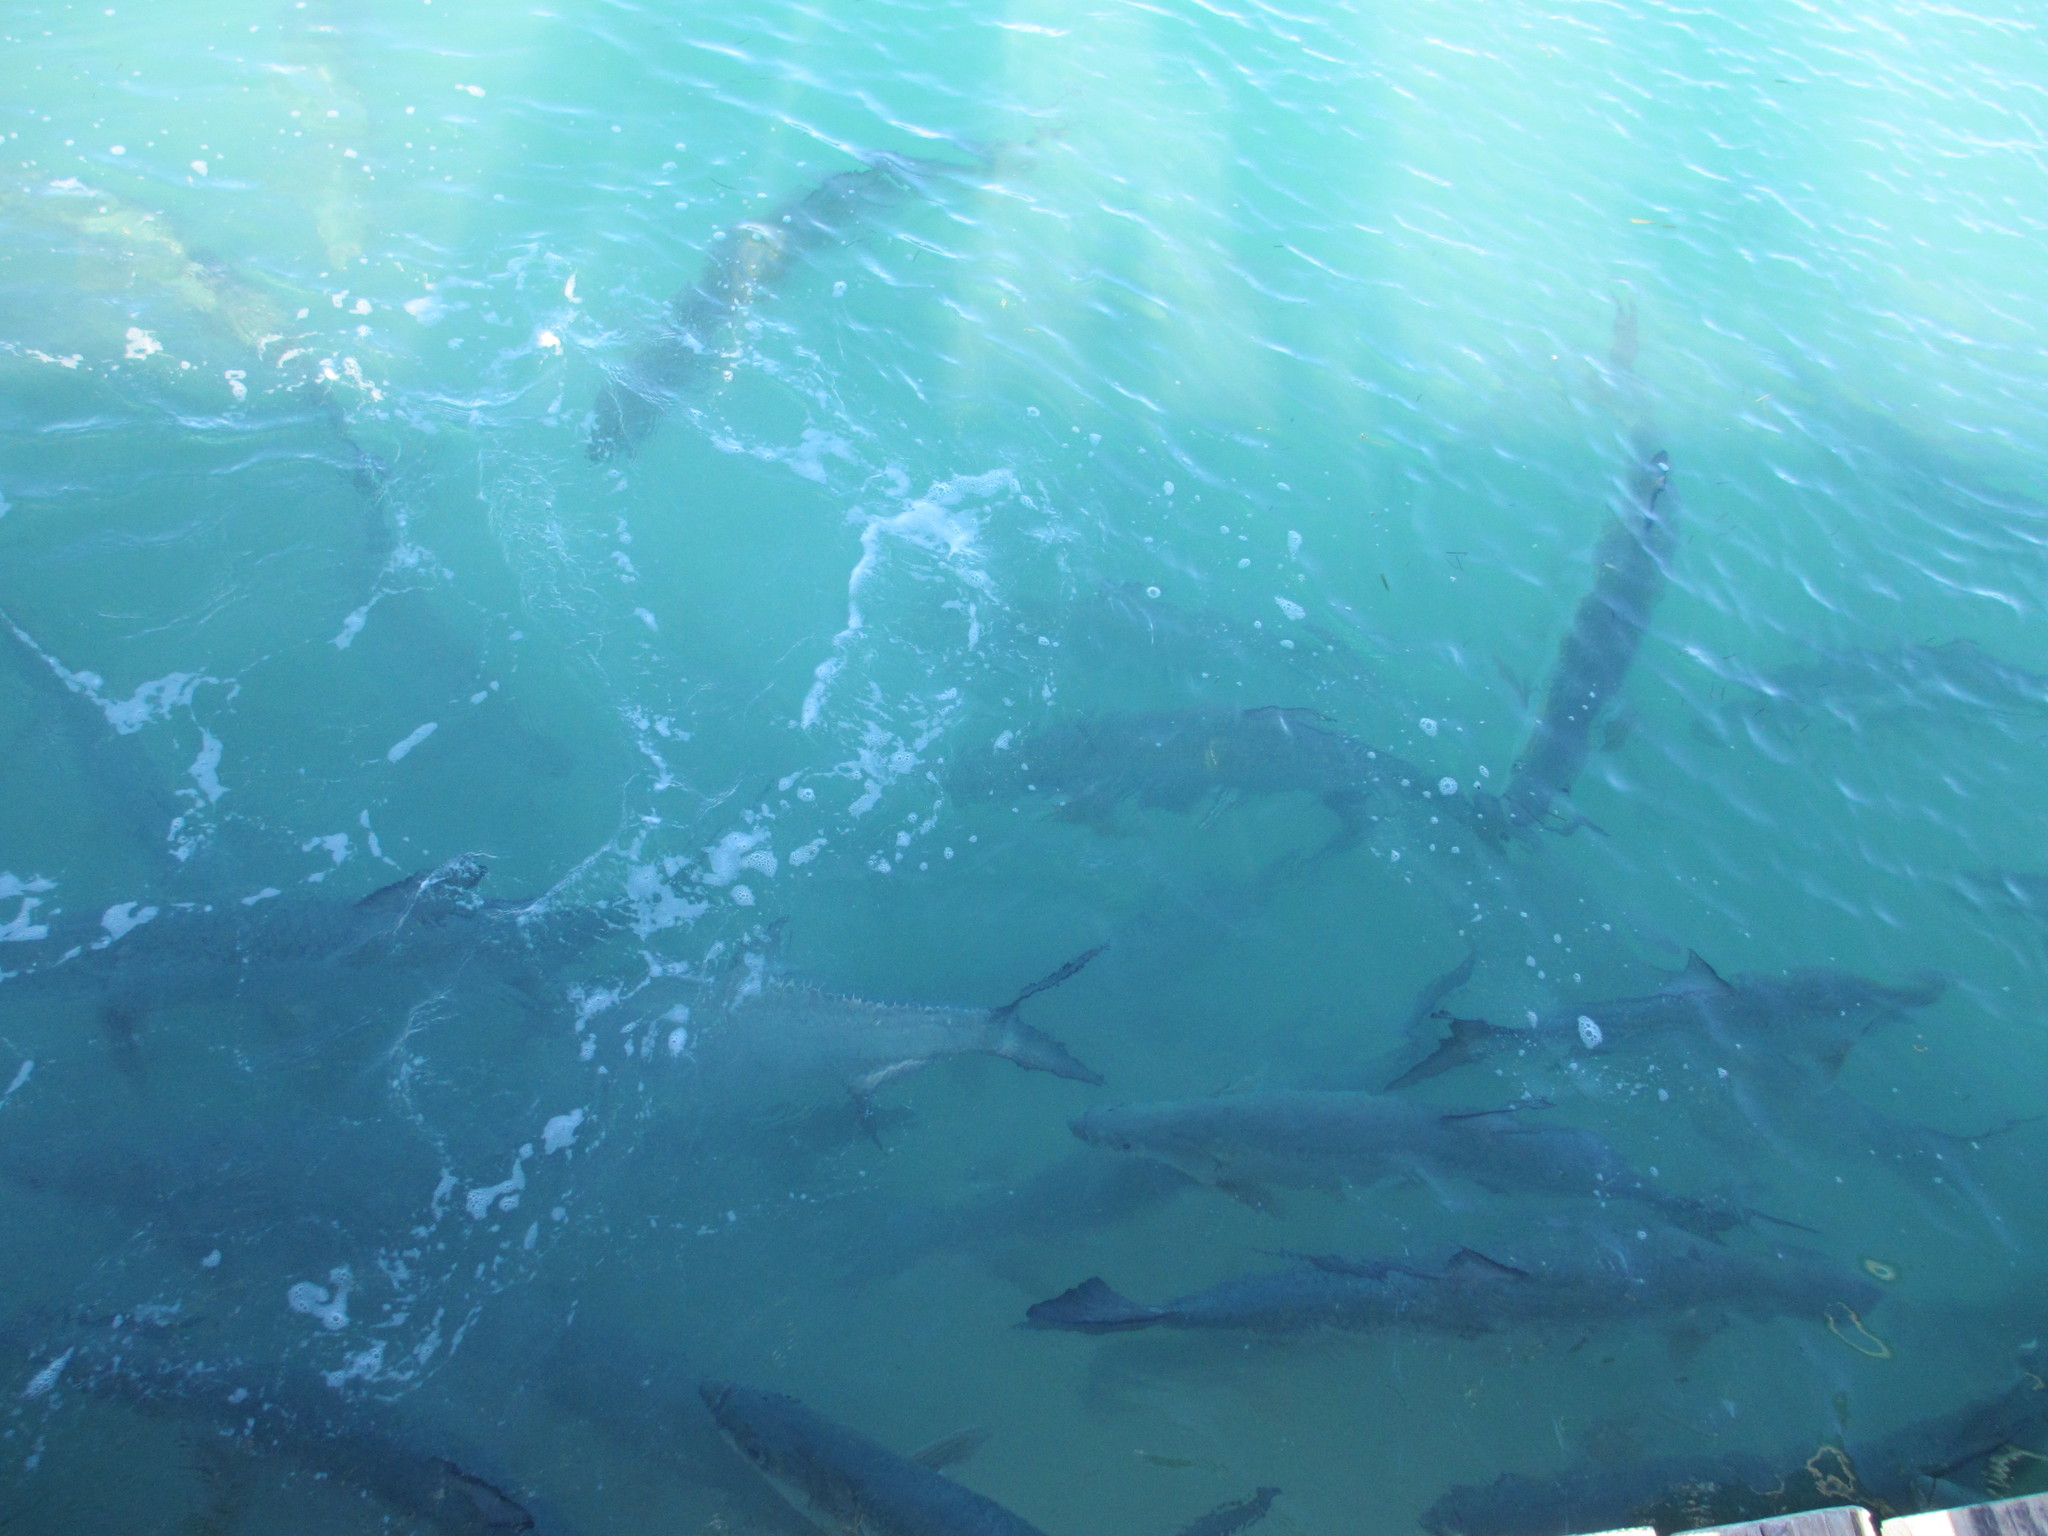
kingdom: Animalia
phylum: Chordata
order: Elopiformes
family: Megalopidae
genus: Megalops
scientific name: Megalops atlanticus
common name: Tarpon
